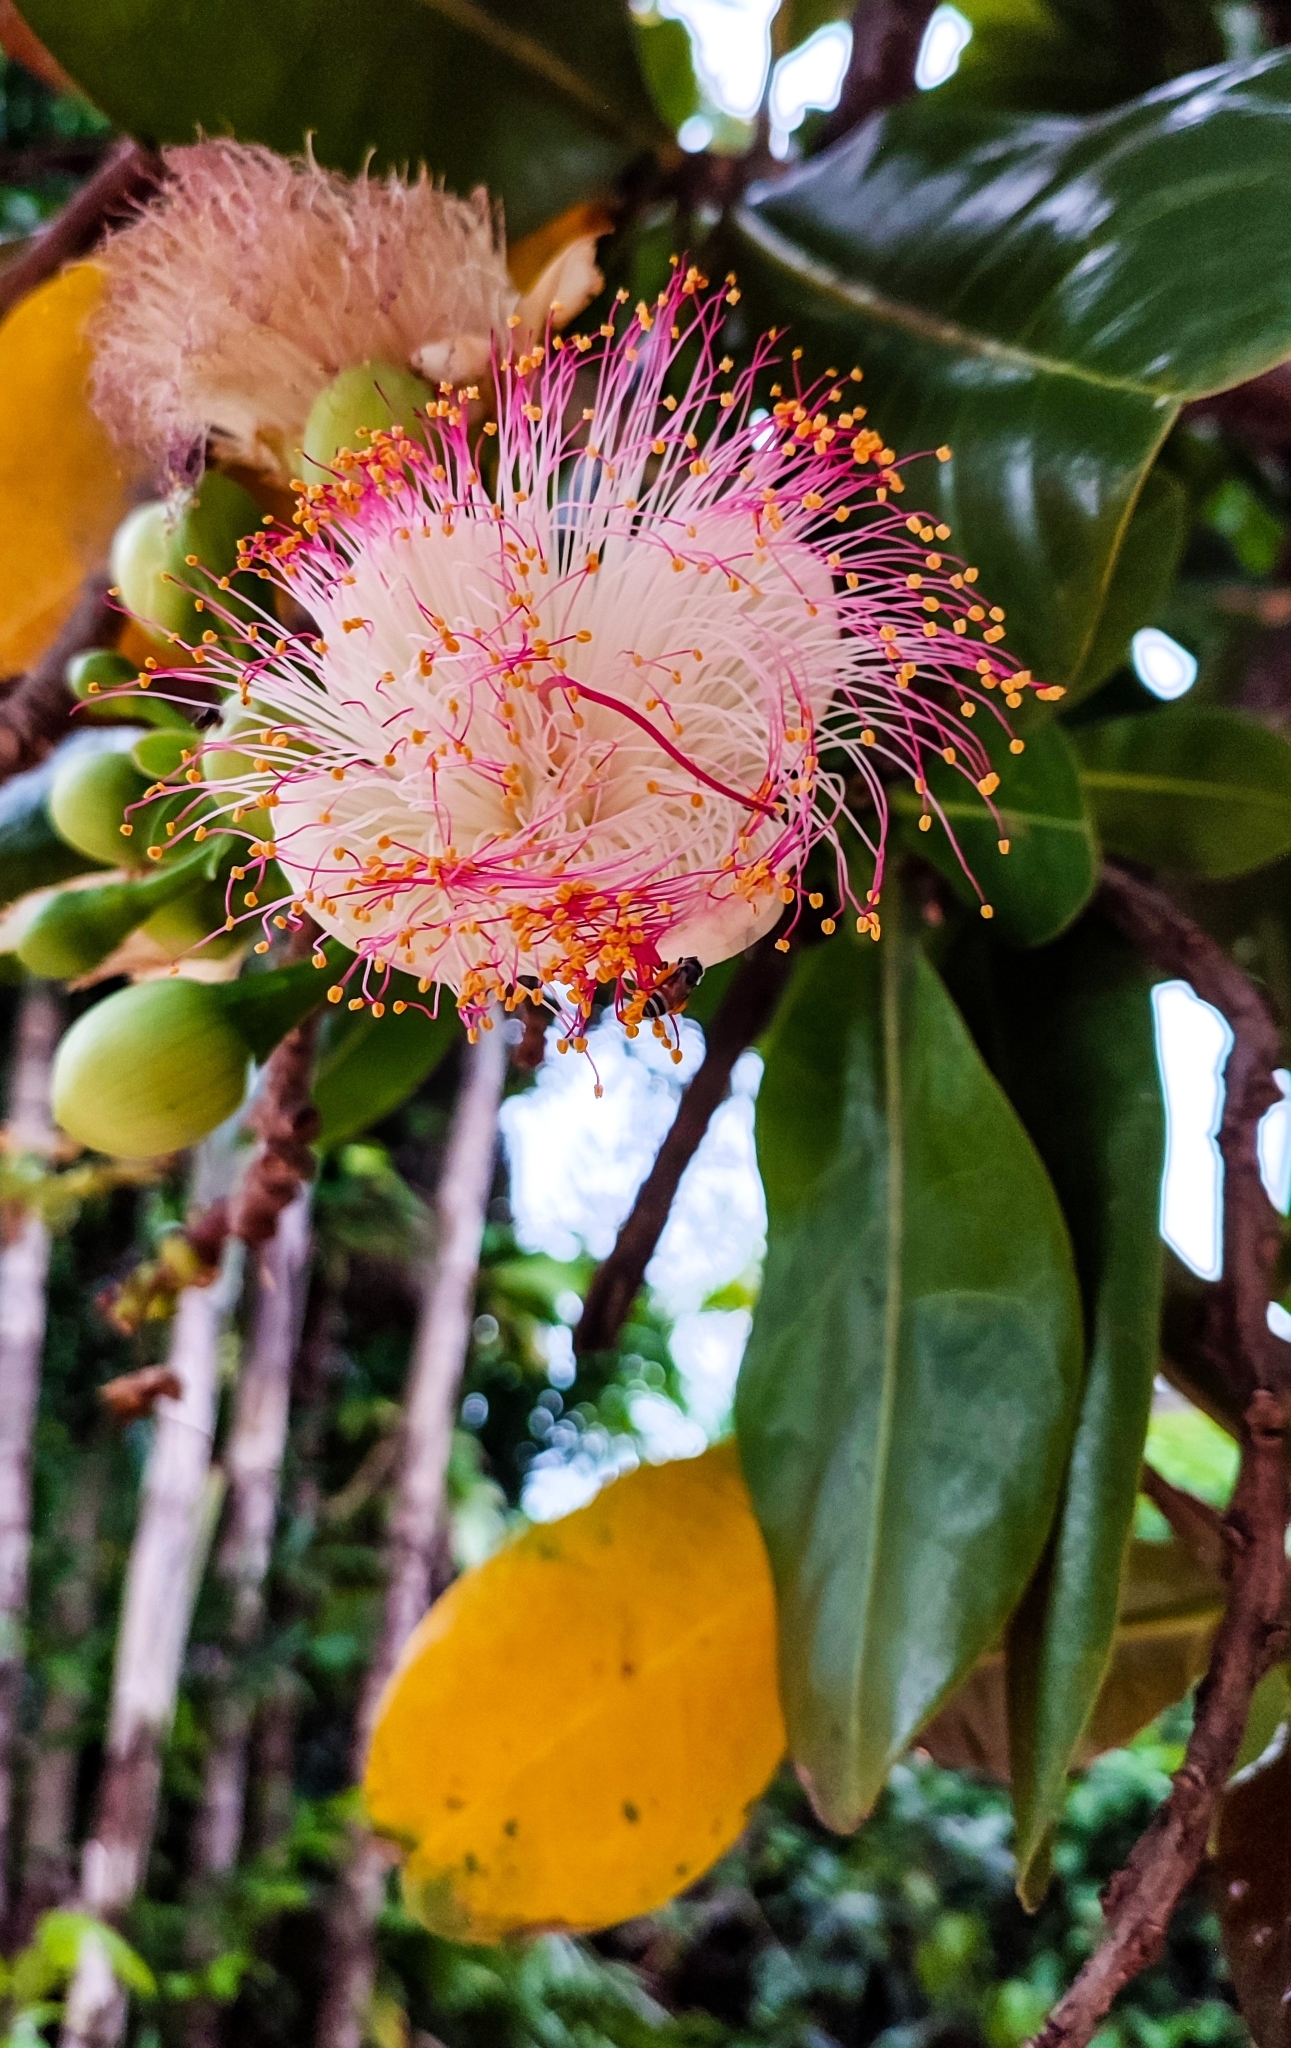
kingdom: Plantae
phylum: Tracheophyta
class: Magnoliopsida
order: Ericales
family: Lecythidaceae
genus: Barringtonia
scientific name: Barringtonia asiatica
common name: Mango-pine
